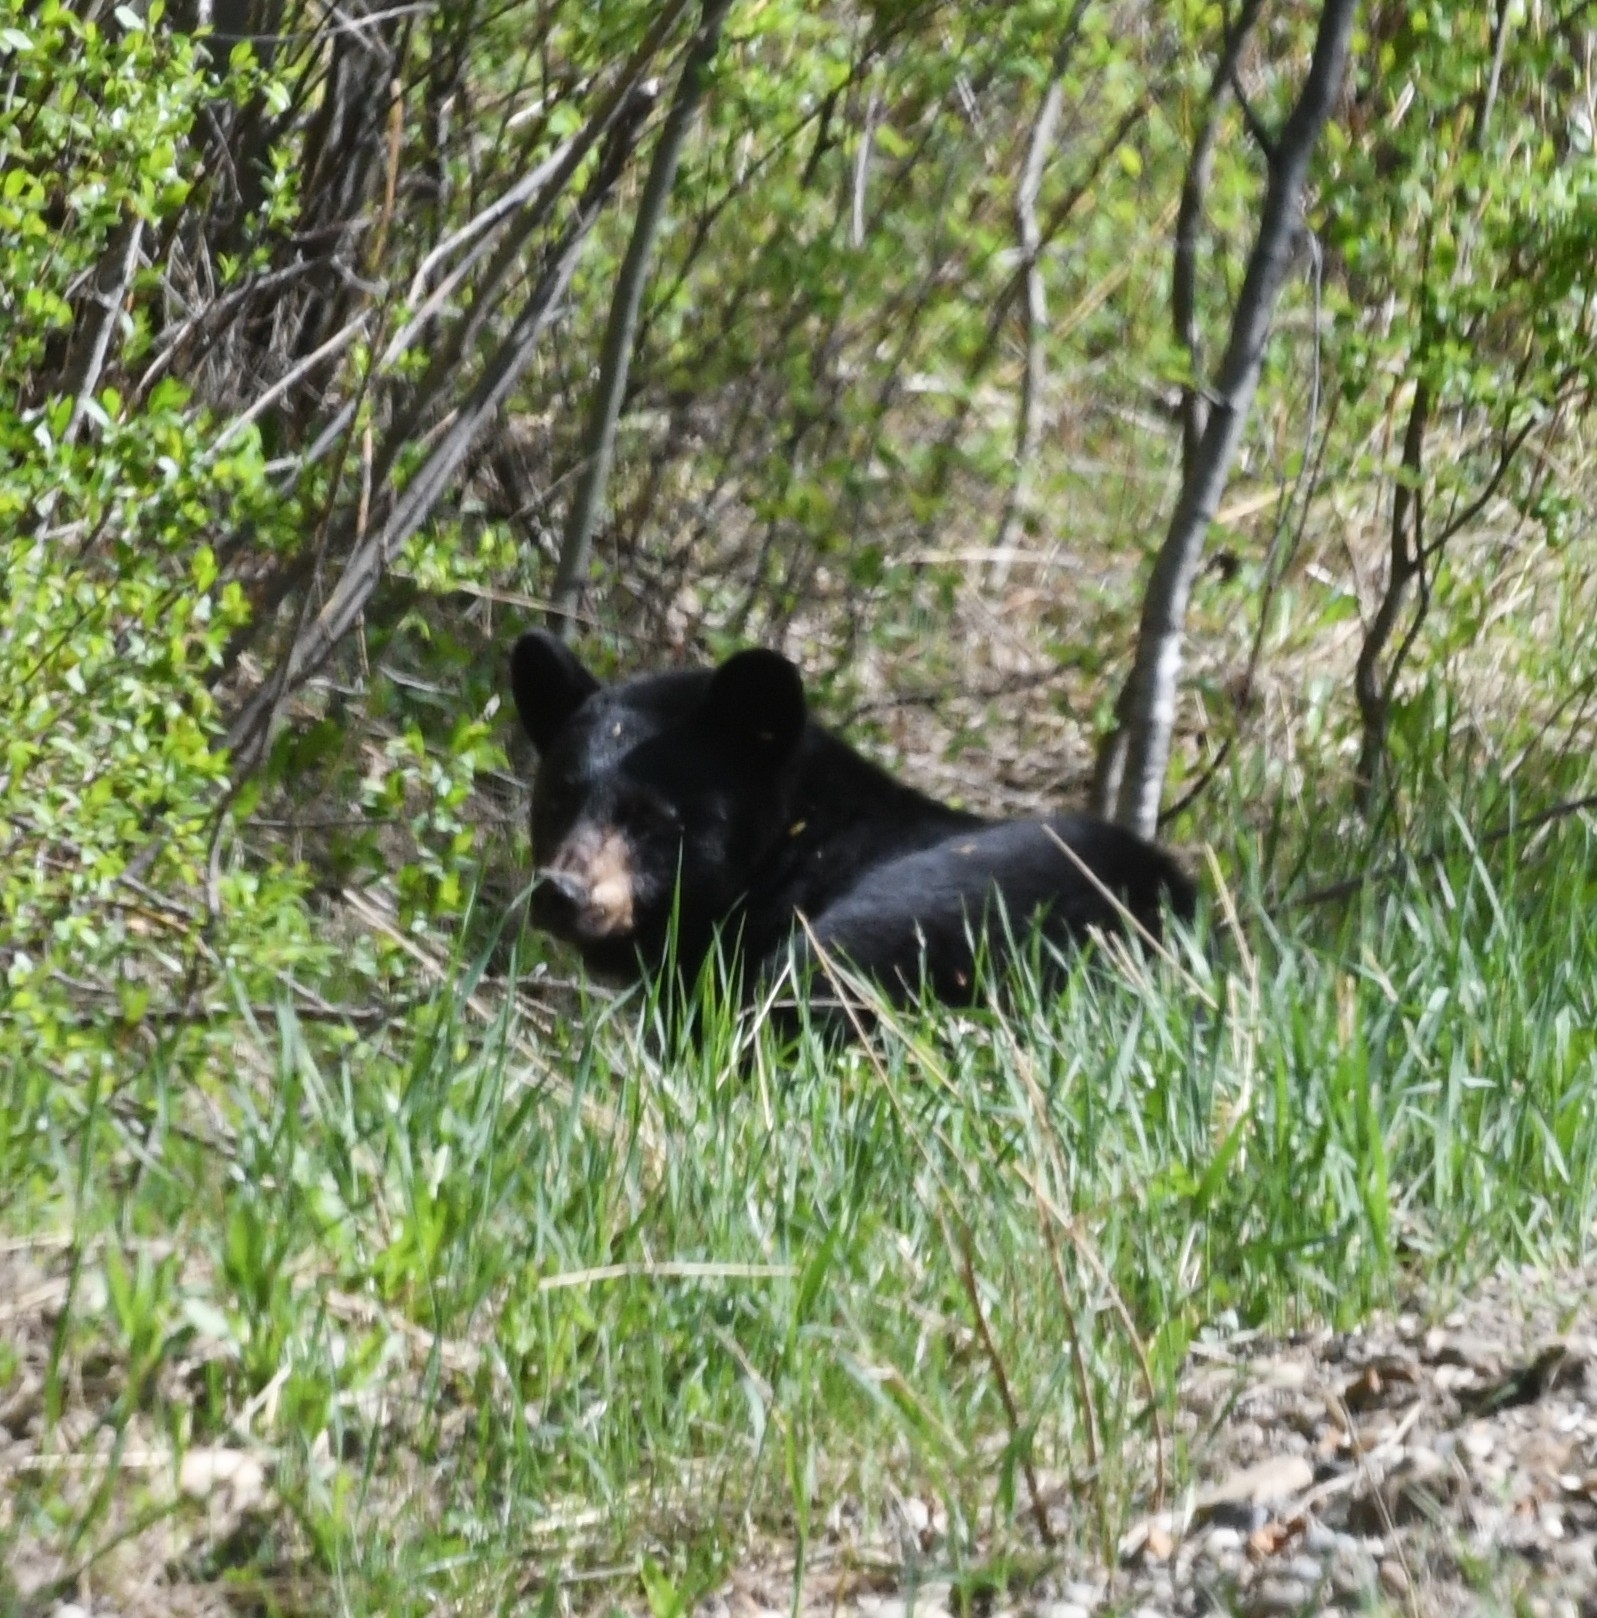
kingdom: Animalia
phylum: Chordata
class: Mammalia
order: Carnivora
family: Ursidae
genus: Ursus
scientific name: Ursus americanus
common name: American black bear
